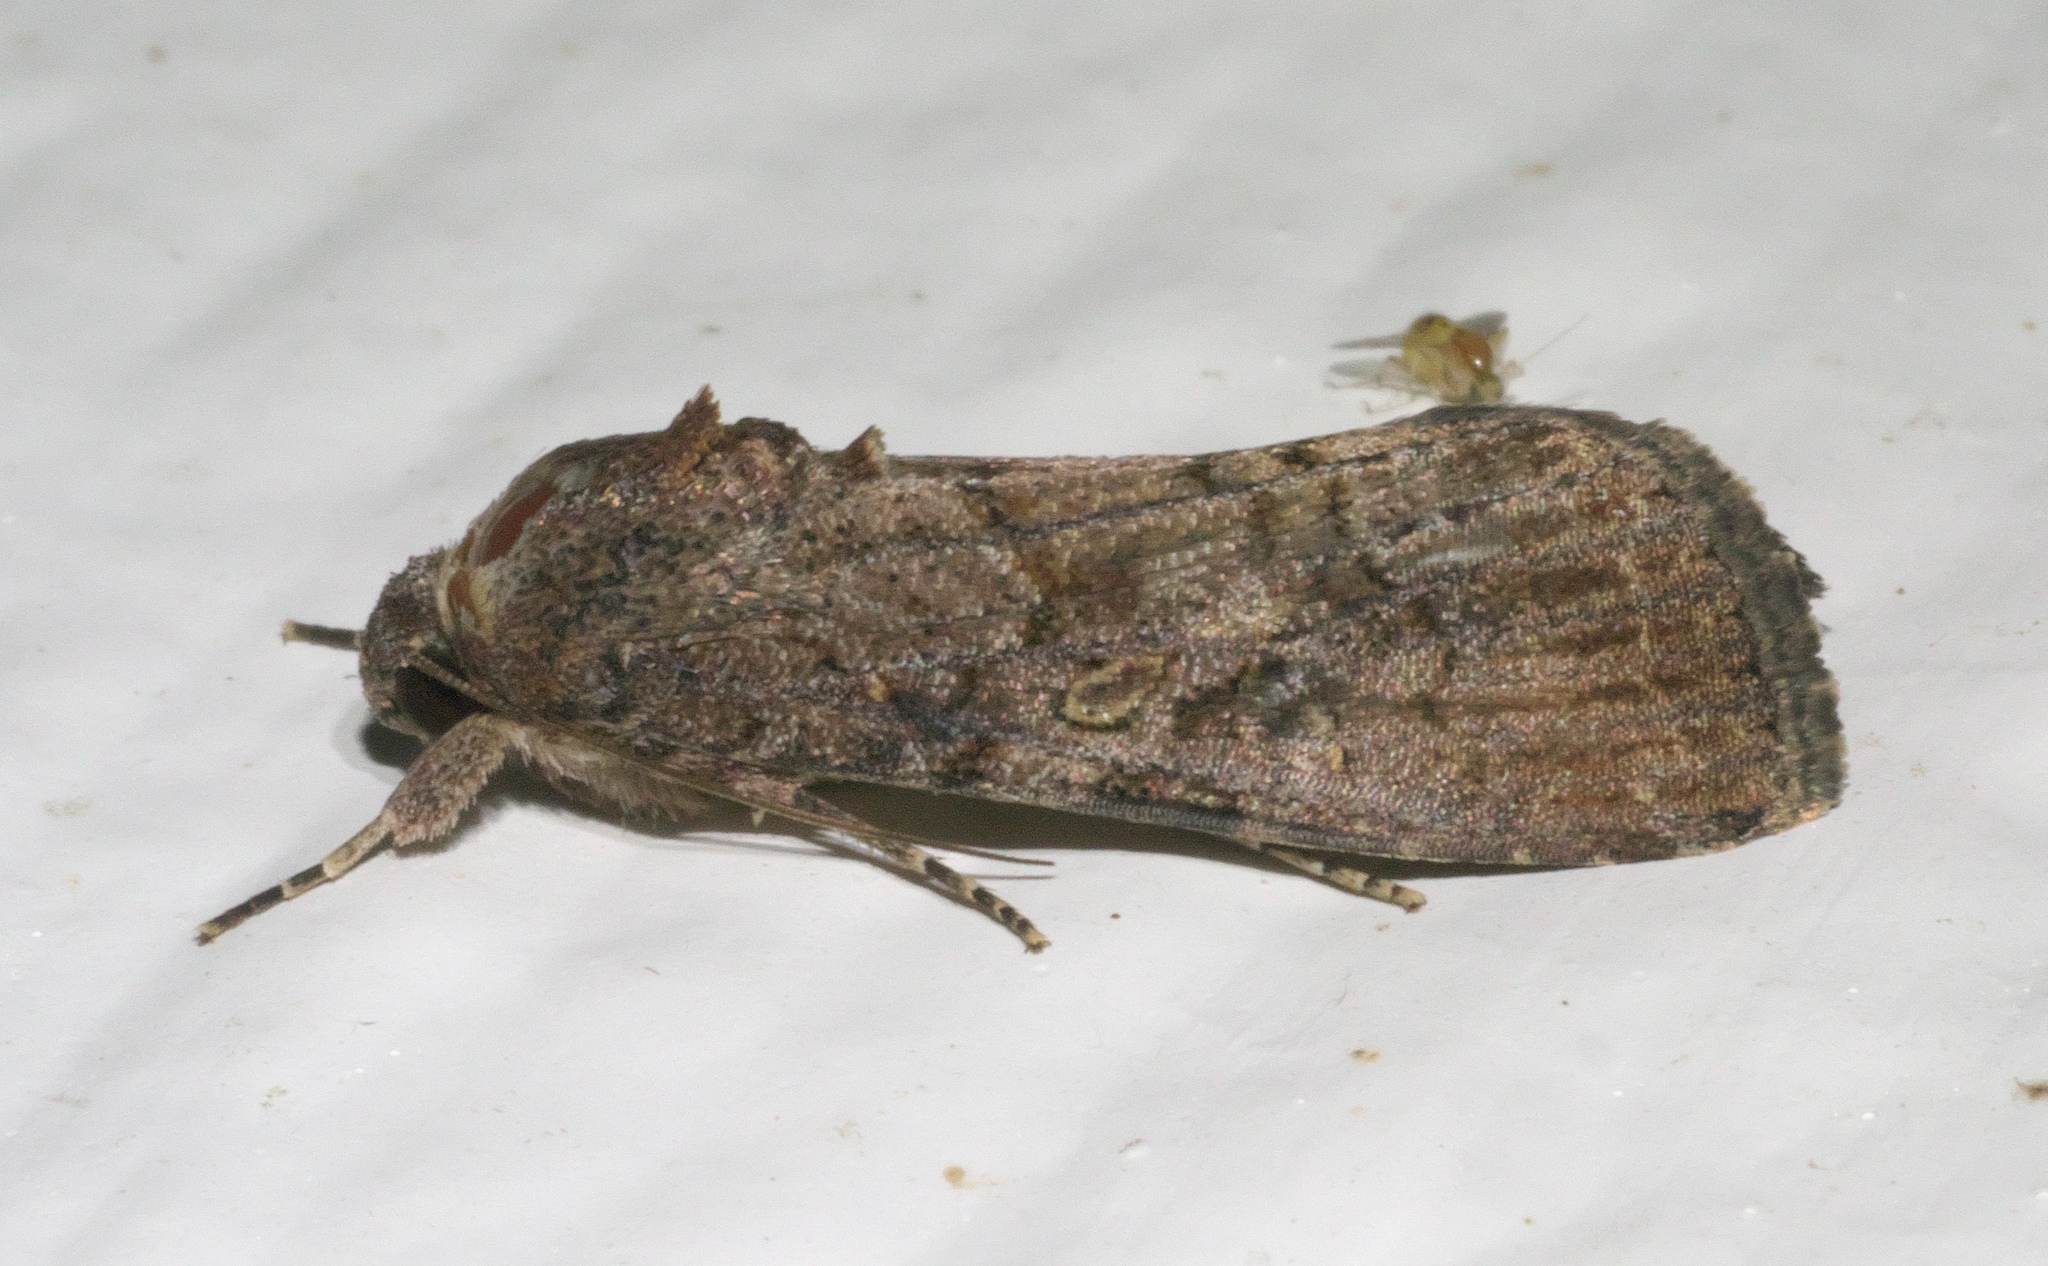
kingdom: Animalia
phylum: Arthropoda
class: Insecta
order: Lepidoptera
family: Noctuidae
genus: Spodoptera
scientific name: Spodoptera frugiperda
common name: Fall armyworm
